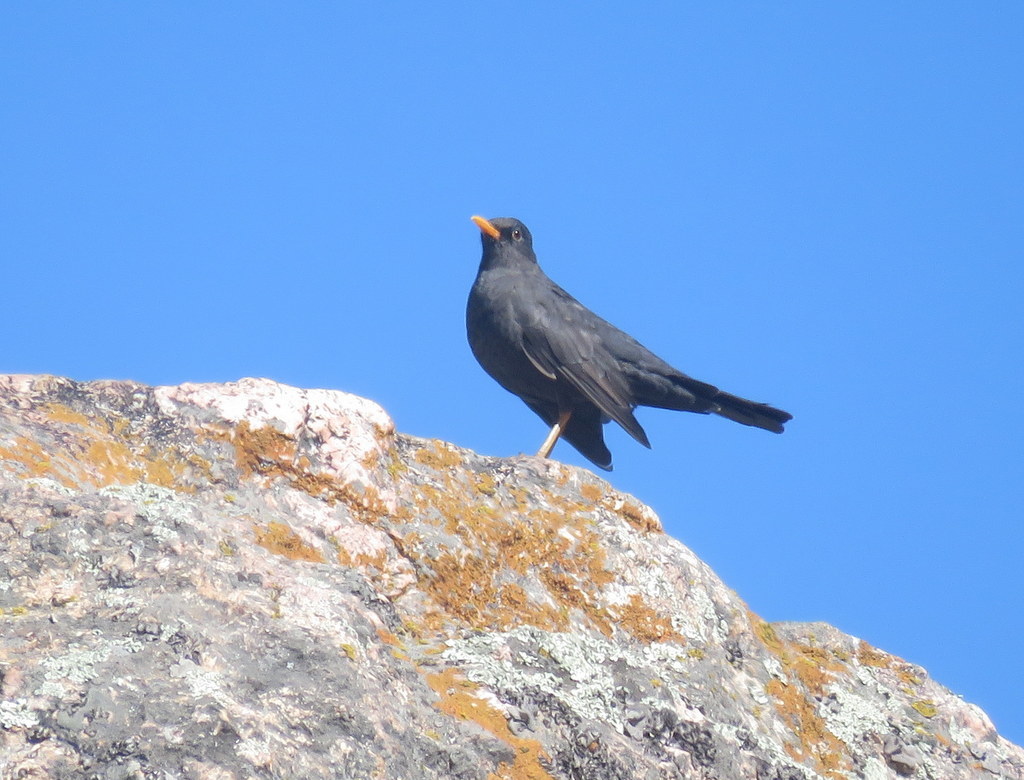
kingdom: Animalia
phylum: Chordata
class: Aves
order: Passeriformes
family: Turdidae
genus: Turdus
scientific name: Turdus chiguanco
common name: Chiguanco thrush
